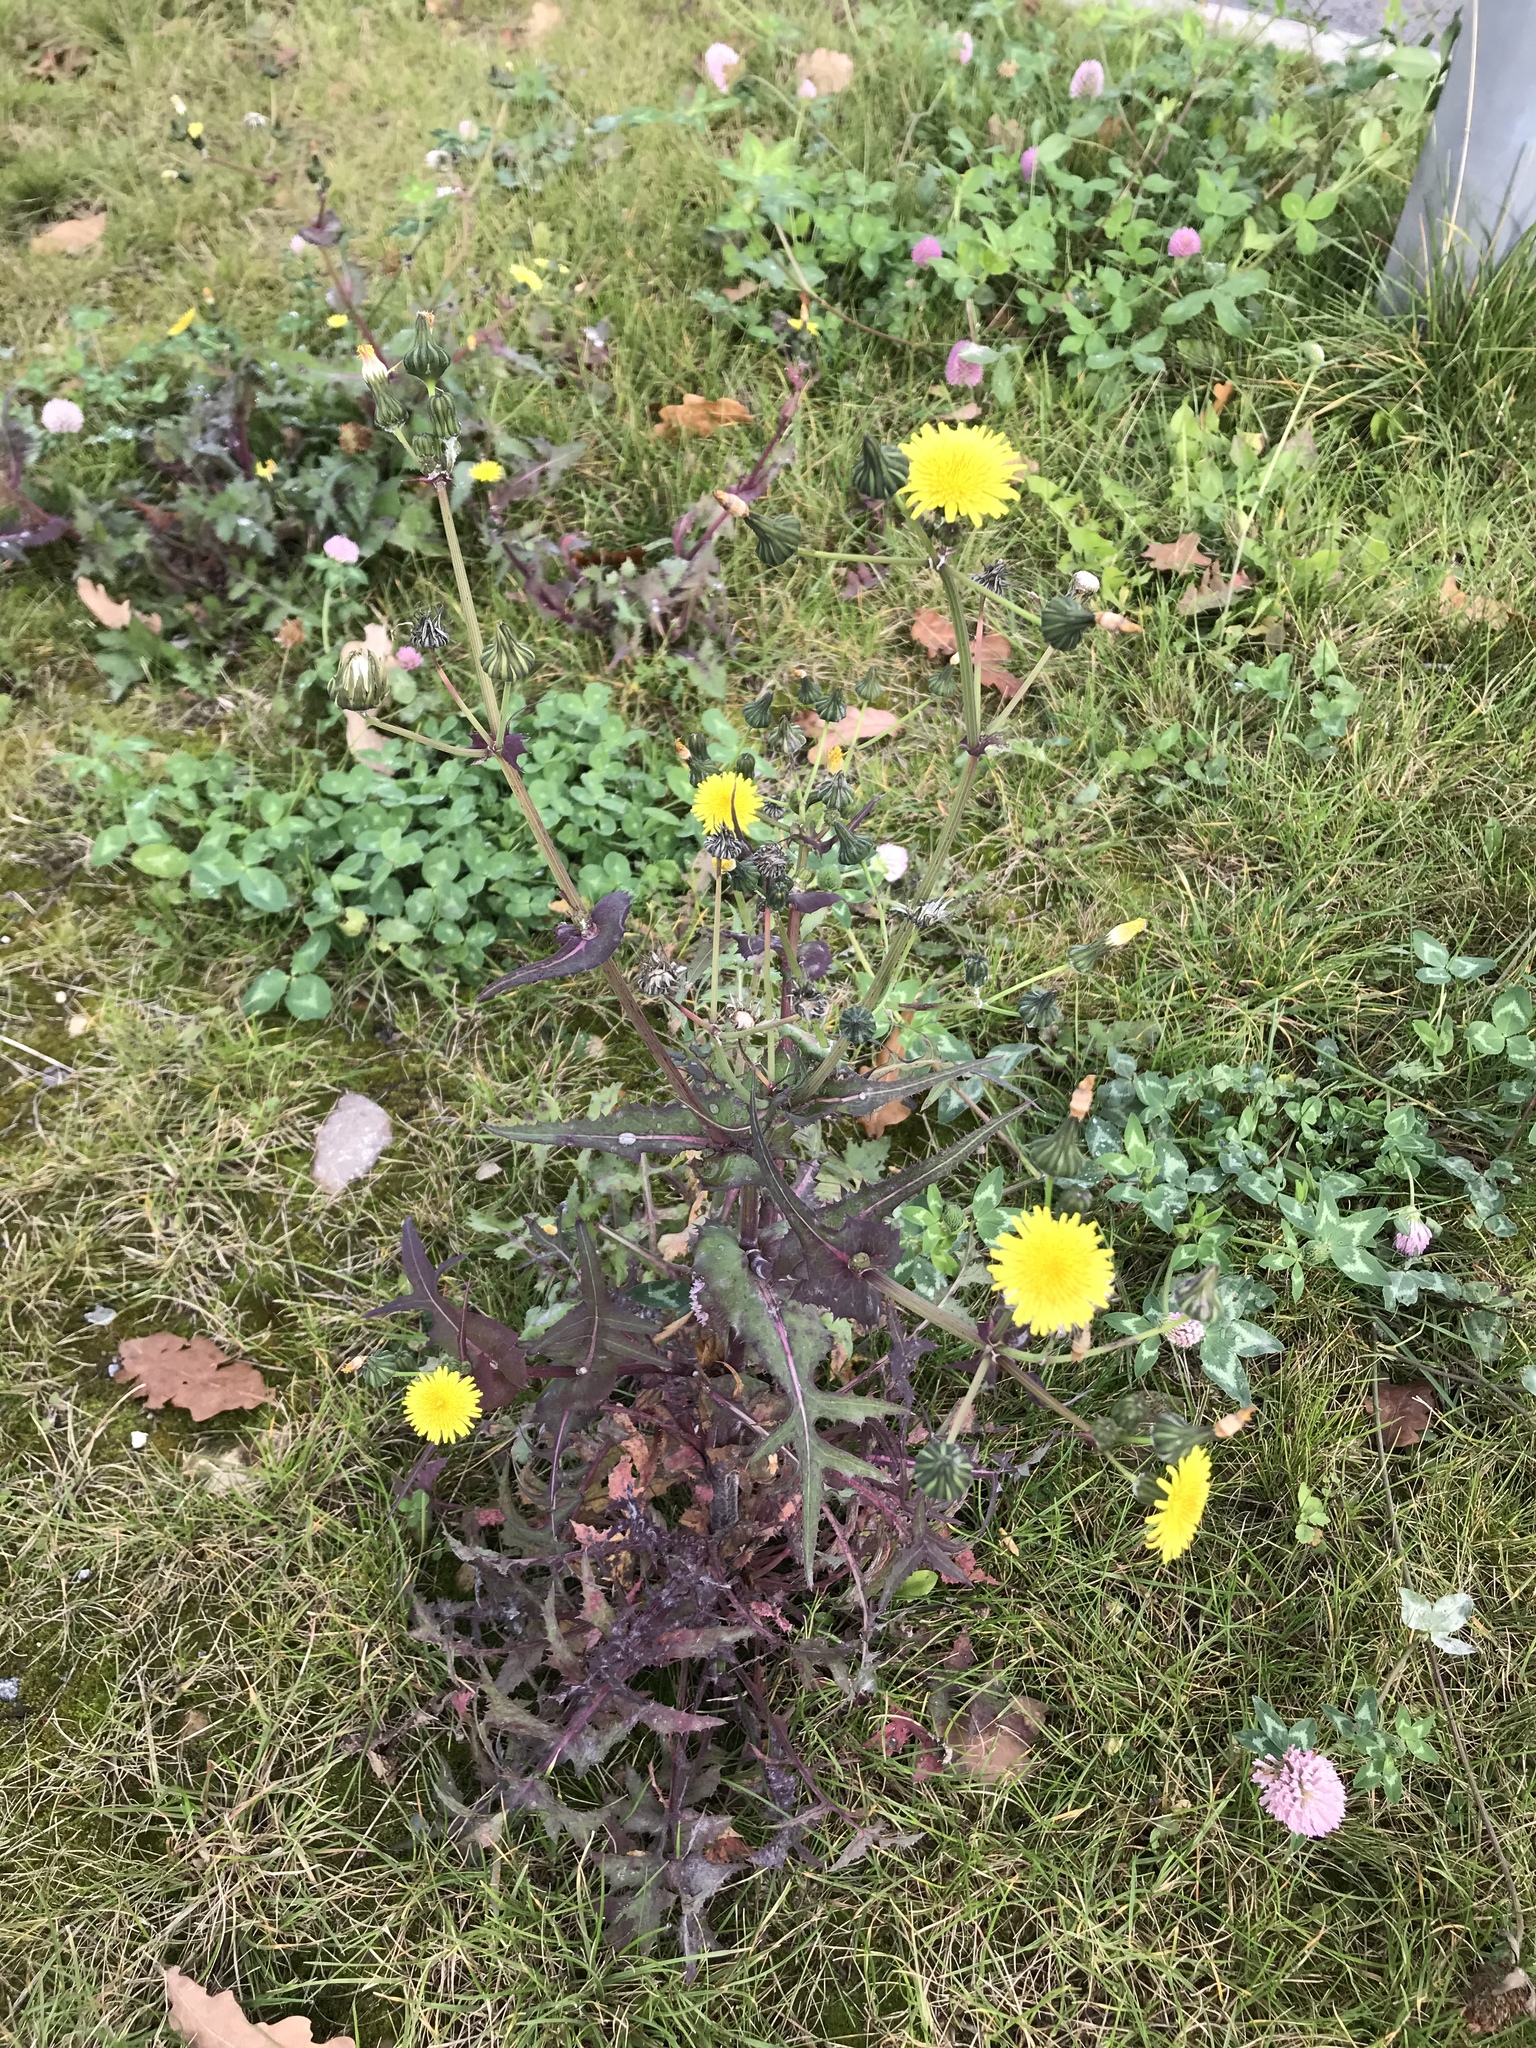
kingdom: Plantae
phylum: Tracheophyta
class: Magnoliopsida
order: Asterales
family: Asteraceae
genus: Sonchus
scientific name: Sonchus oleraceus
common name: Common sowthistle
